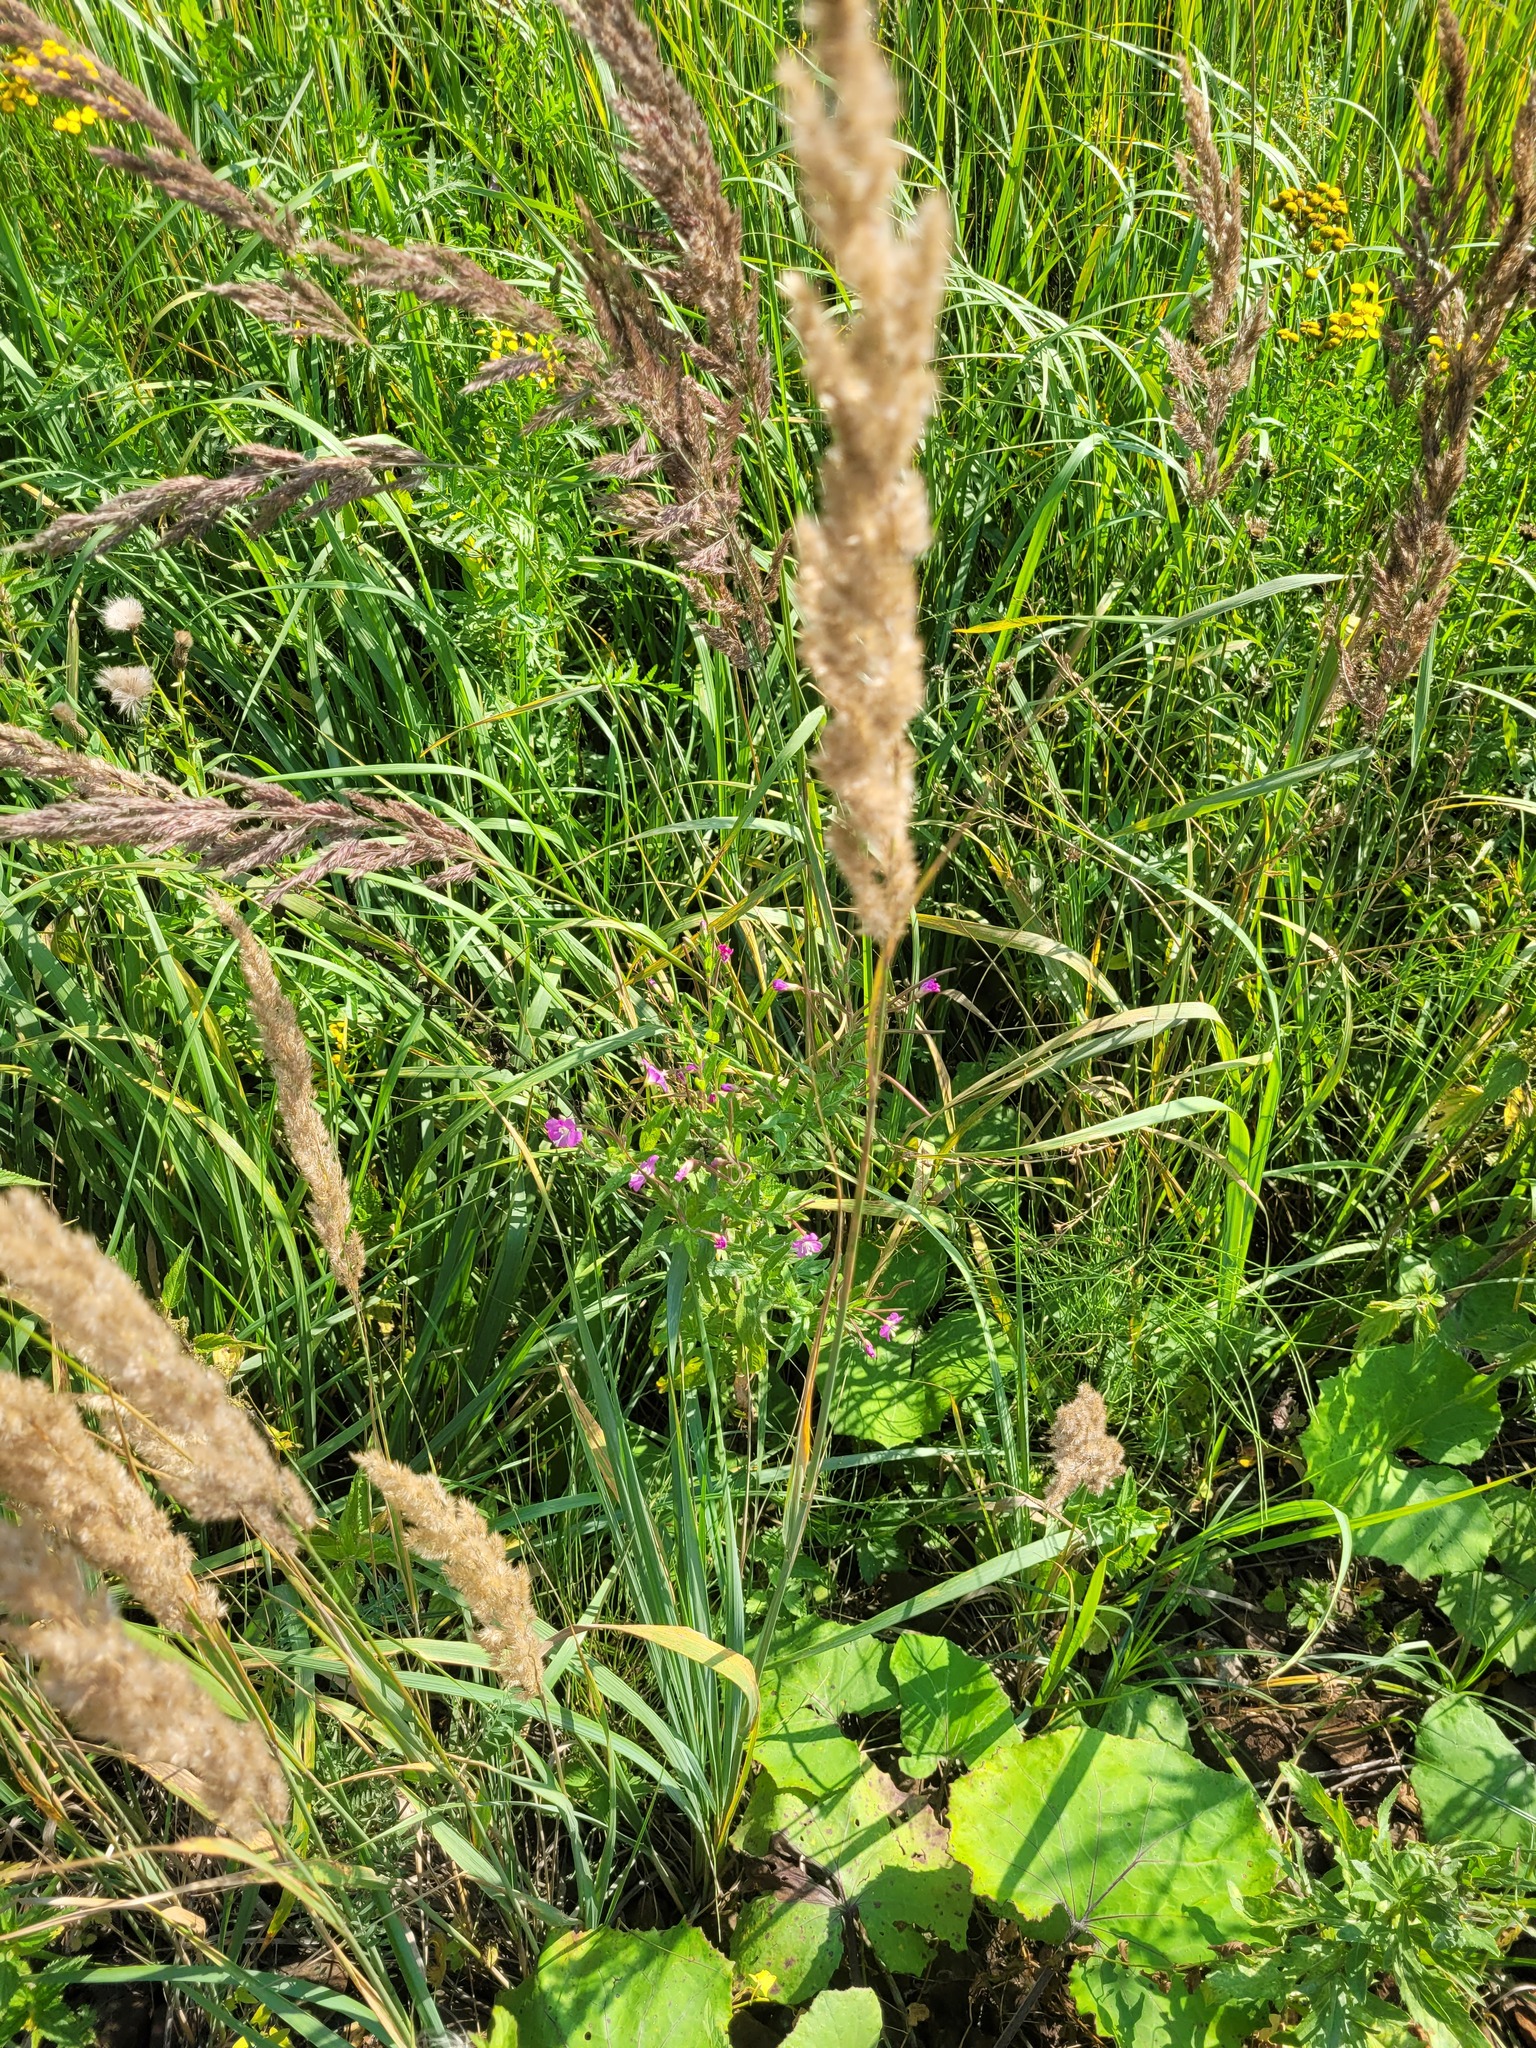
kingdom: Plantae
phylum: Tracheophyta
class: Magnoliopsida
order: Myrtales
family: Onagraceae
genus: Epilobium
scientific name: Epilobium hirsutum
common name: Great willowherb
